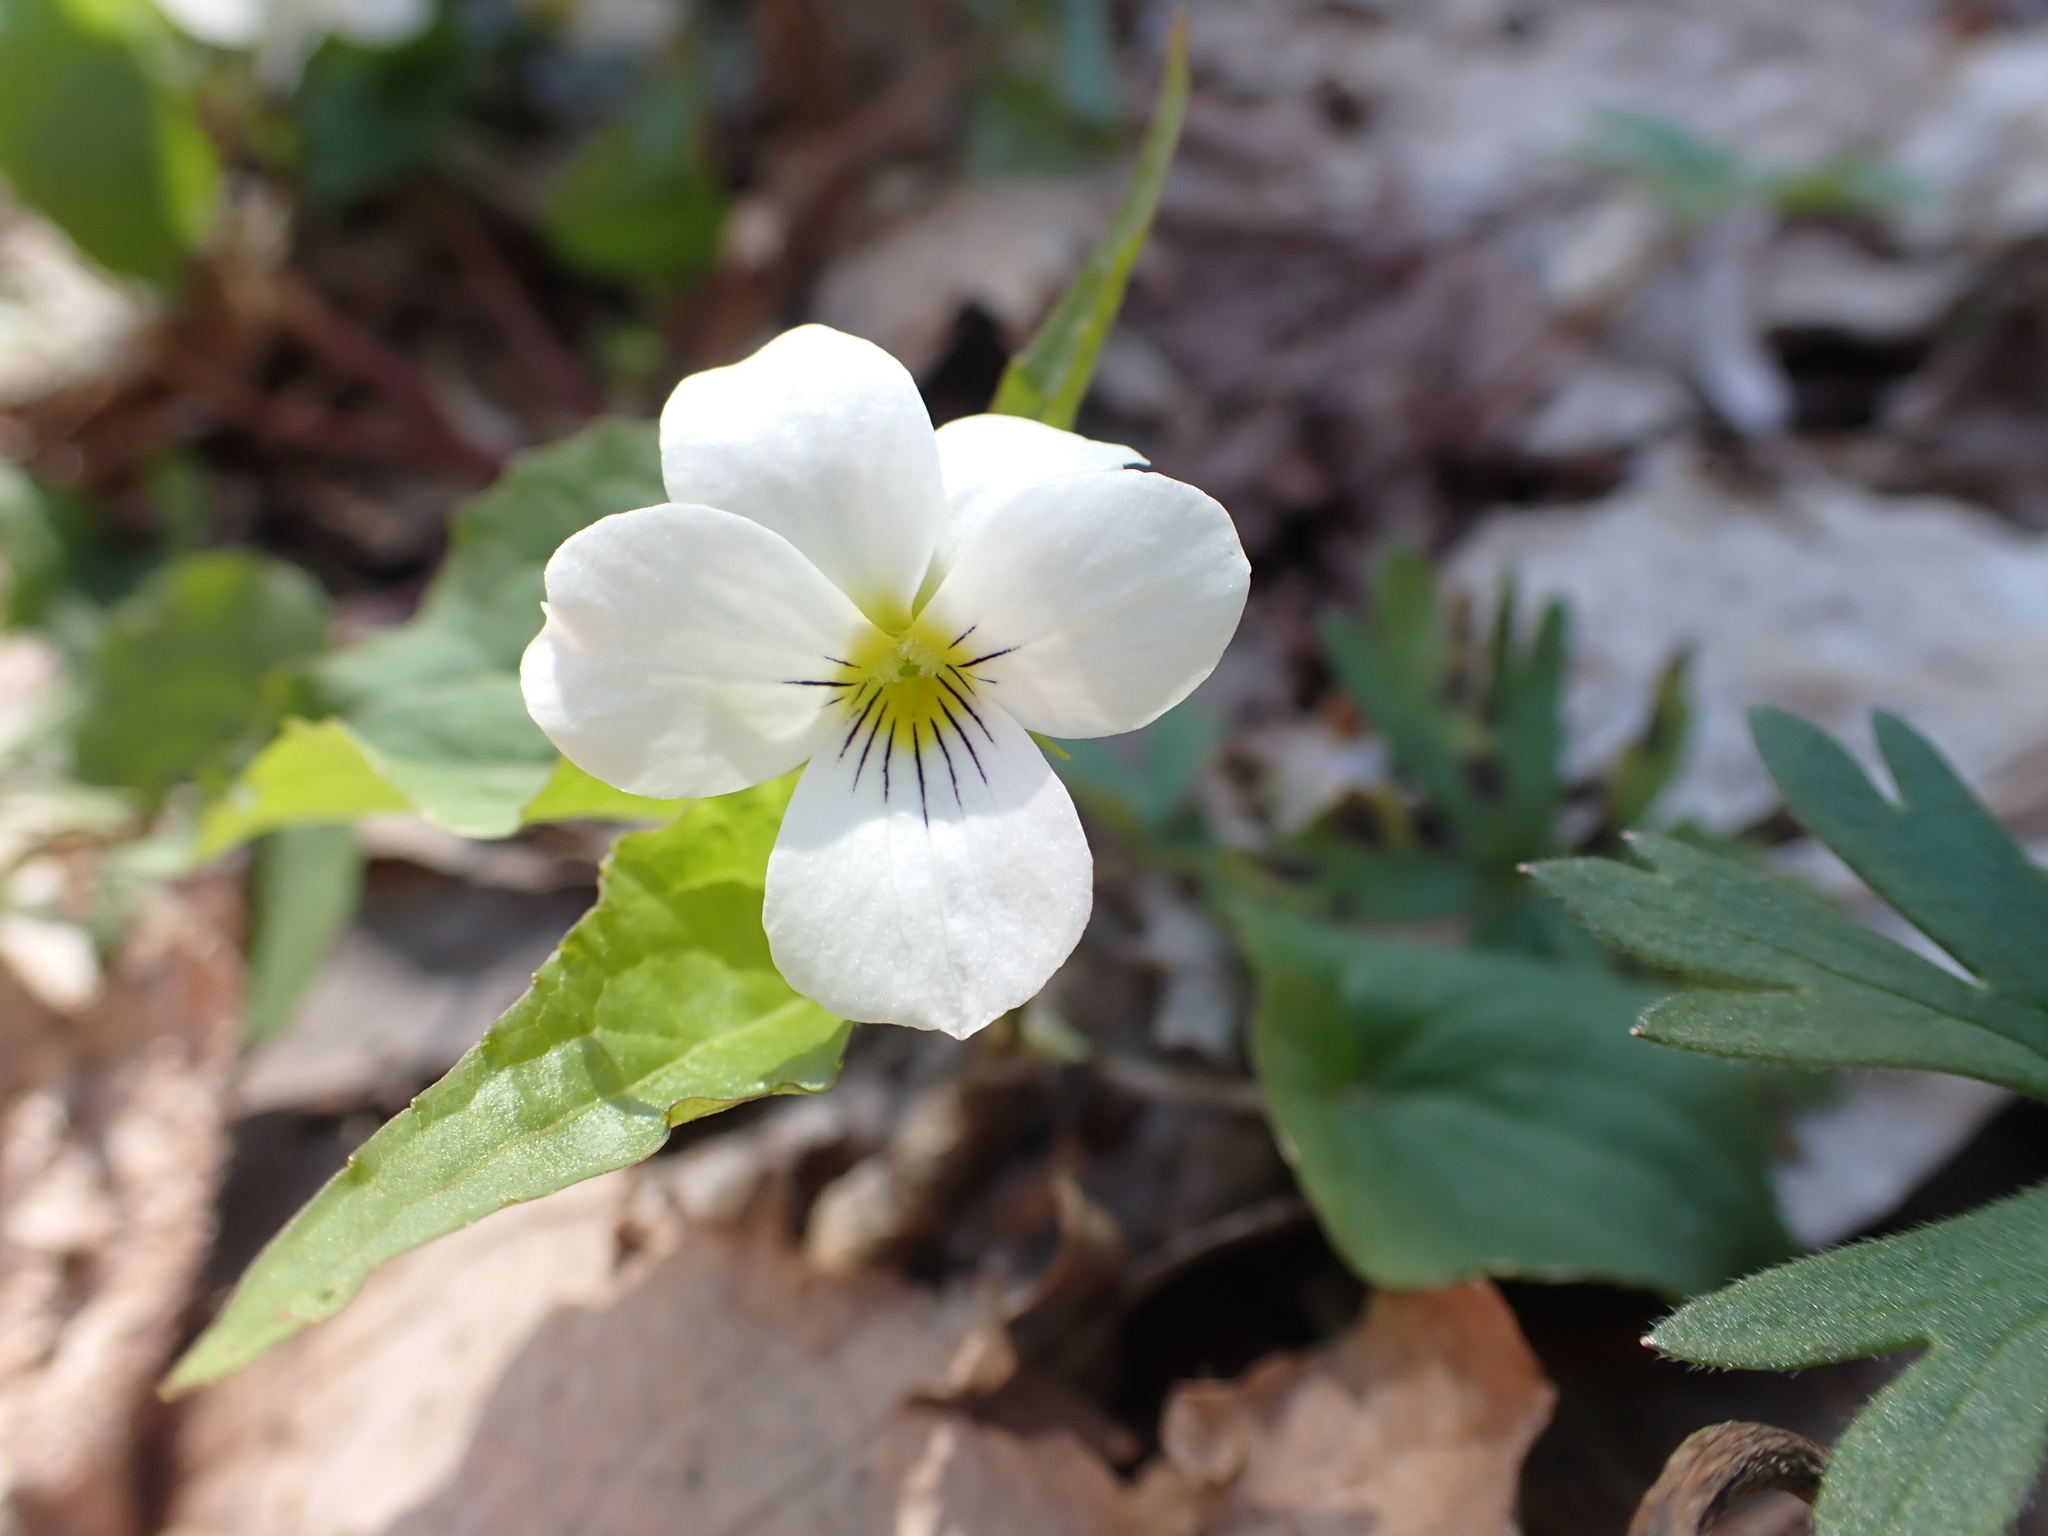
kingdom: Plantae
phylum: Tracheophyta
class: Magnoliopsida
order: Malpighiales
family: Violaceae
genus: Viola
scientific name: Viola canadensis
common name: Canada violet
